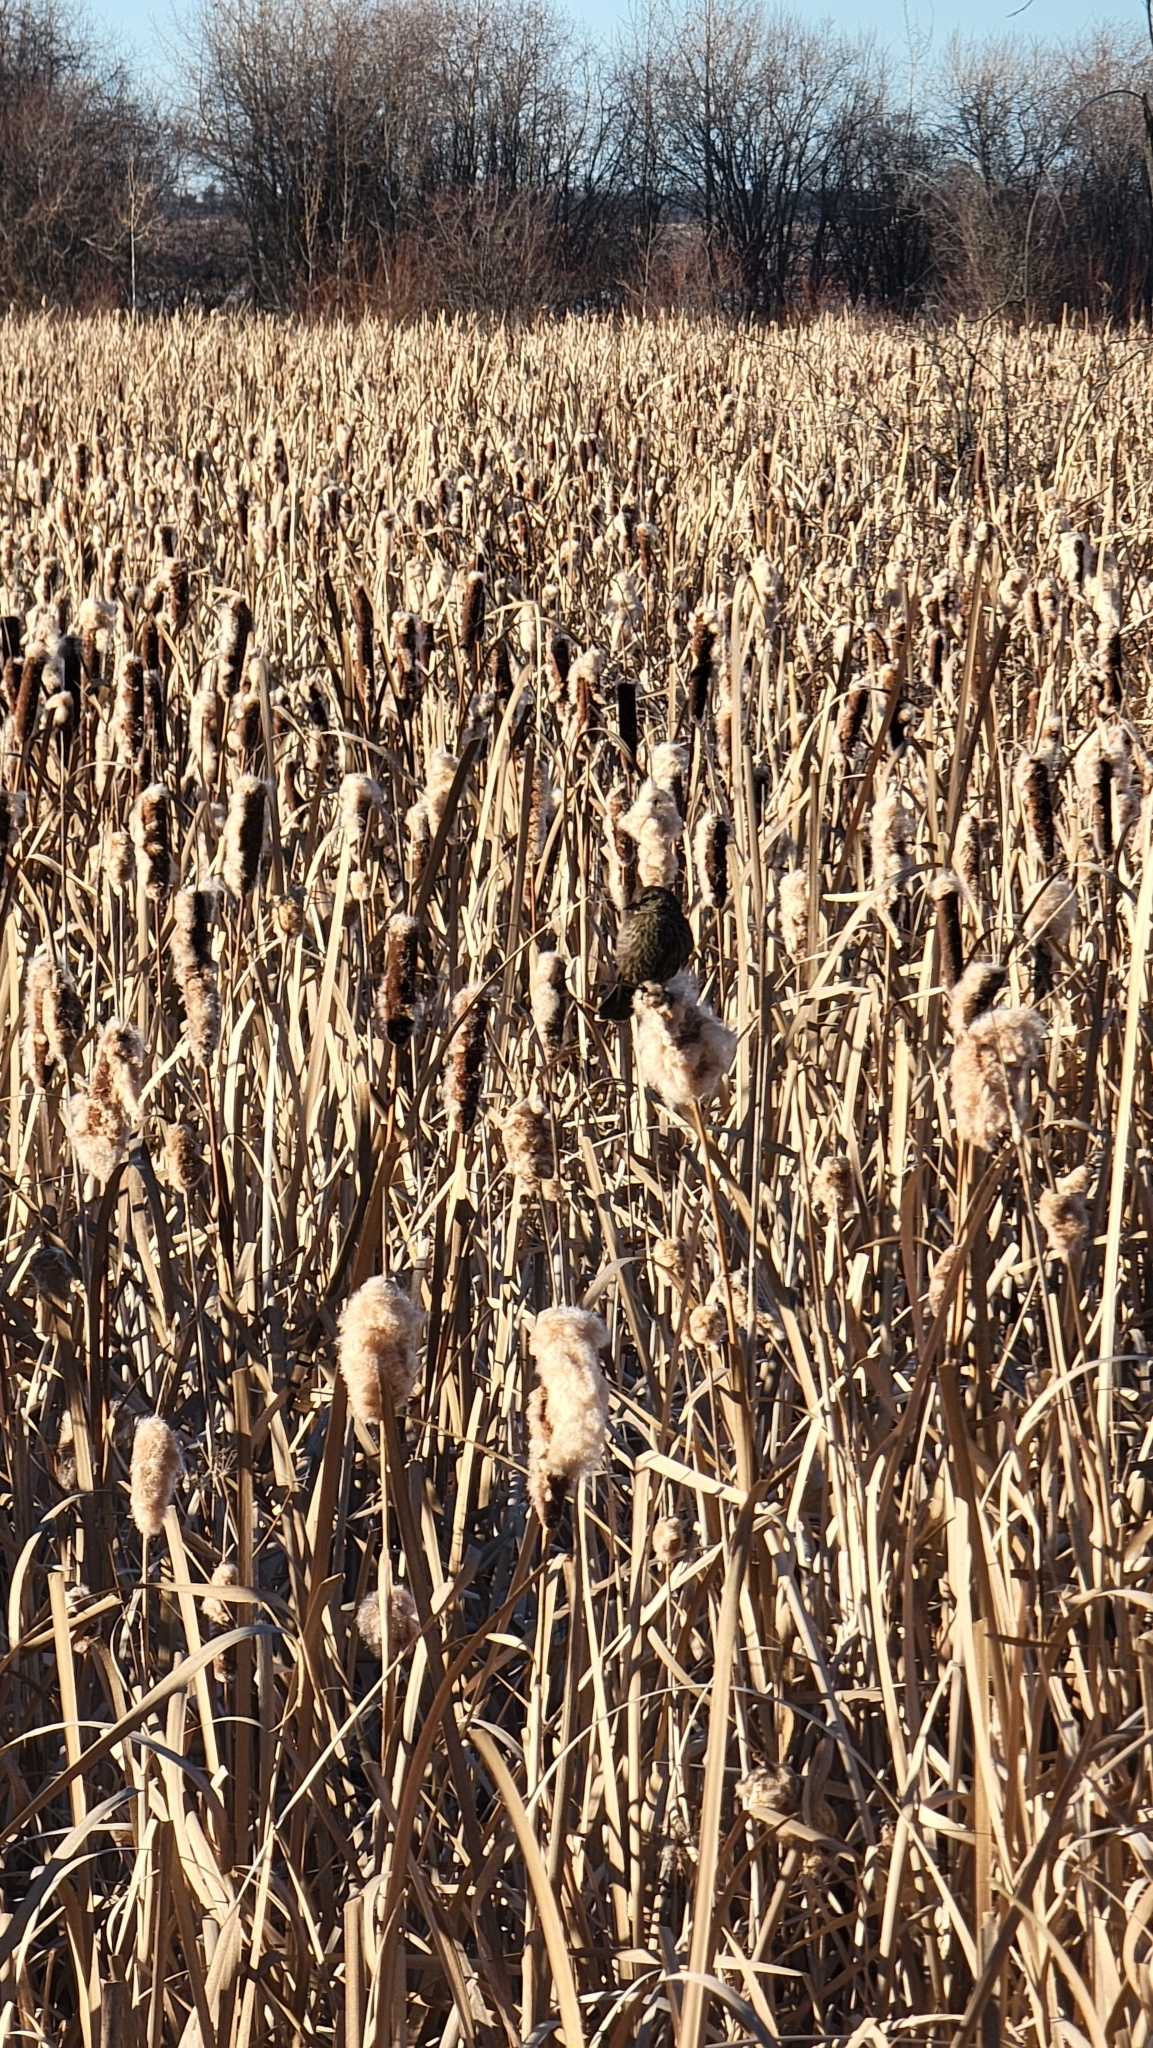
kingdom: Animalia
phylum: Chordata
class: Aves
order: Passeriformes
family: Icteridae
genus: Agelaius
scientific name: Agelaius phoeniceus
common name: Red-winged blackbird
